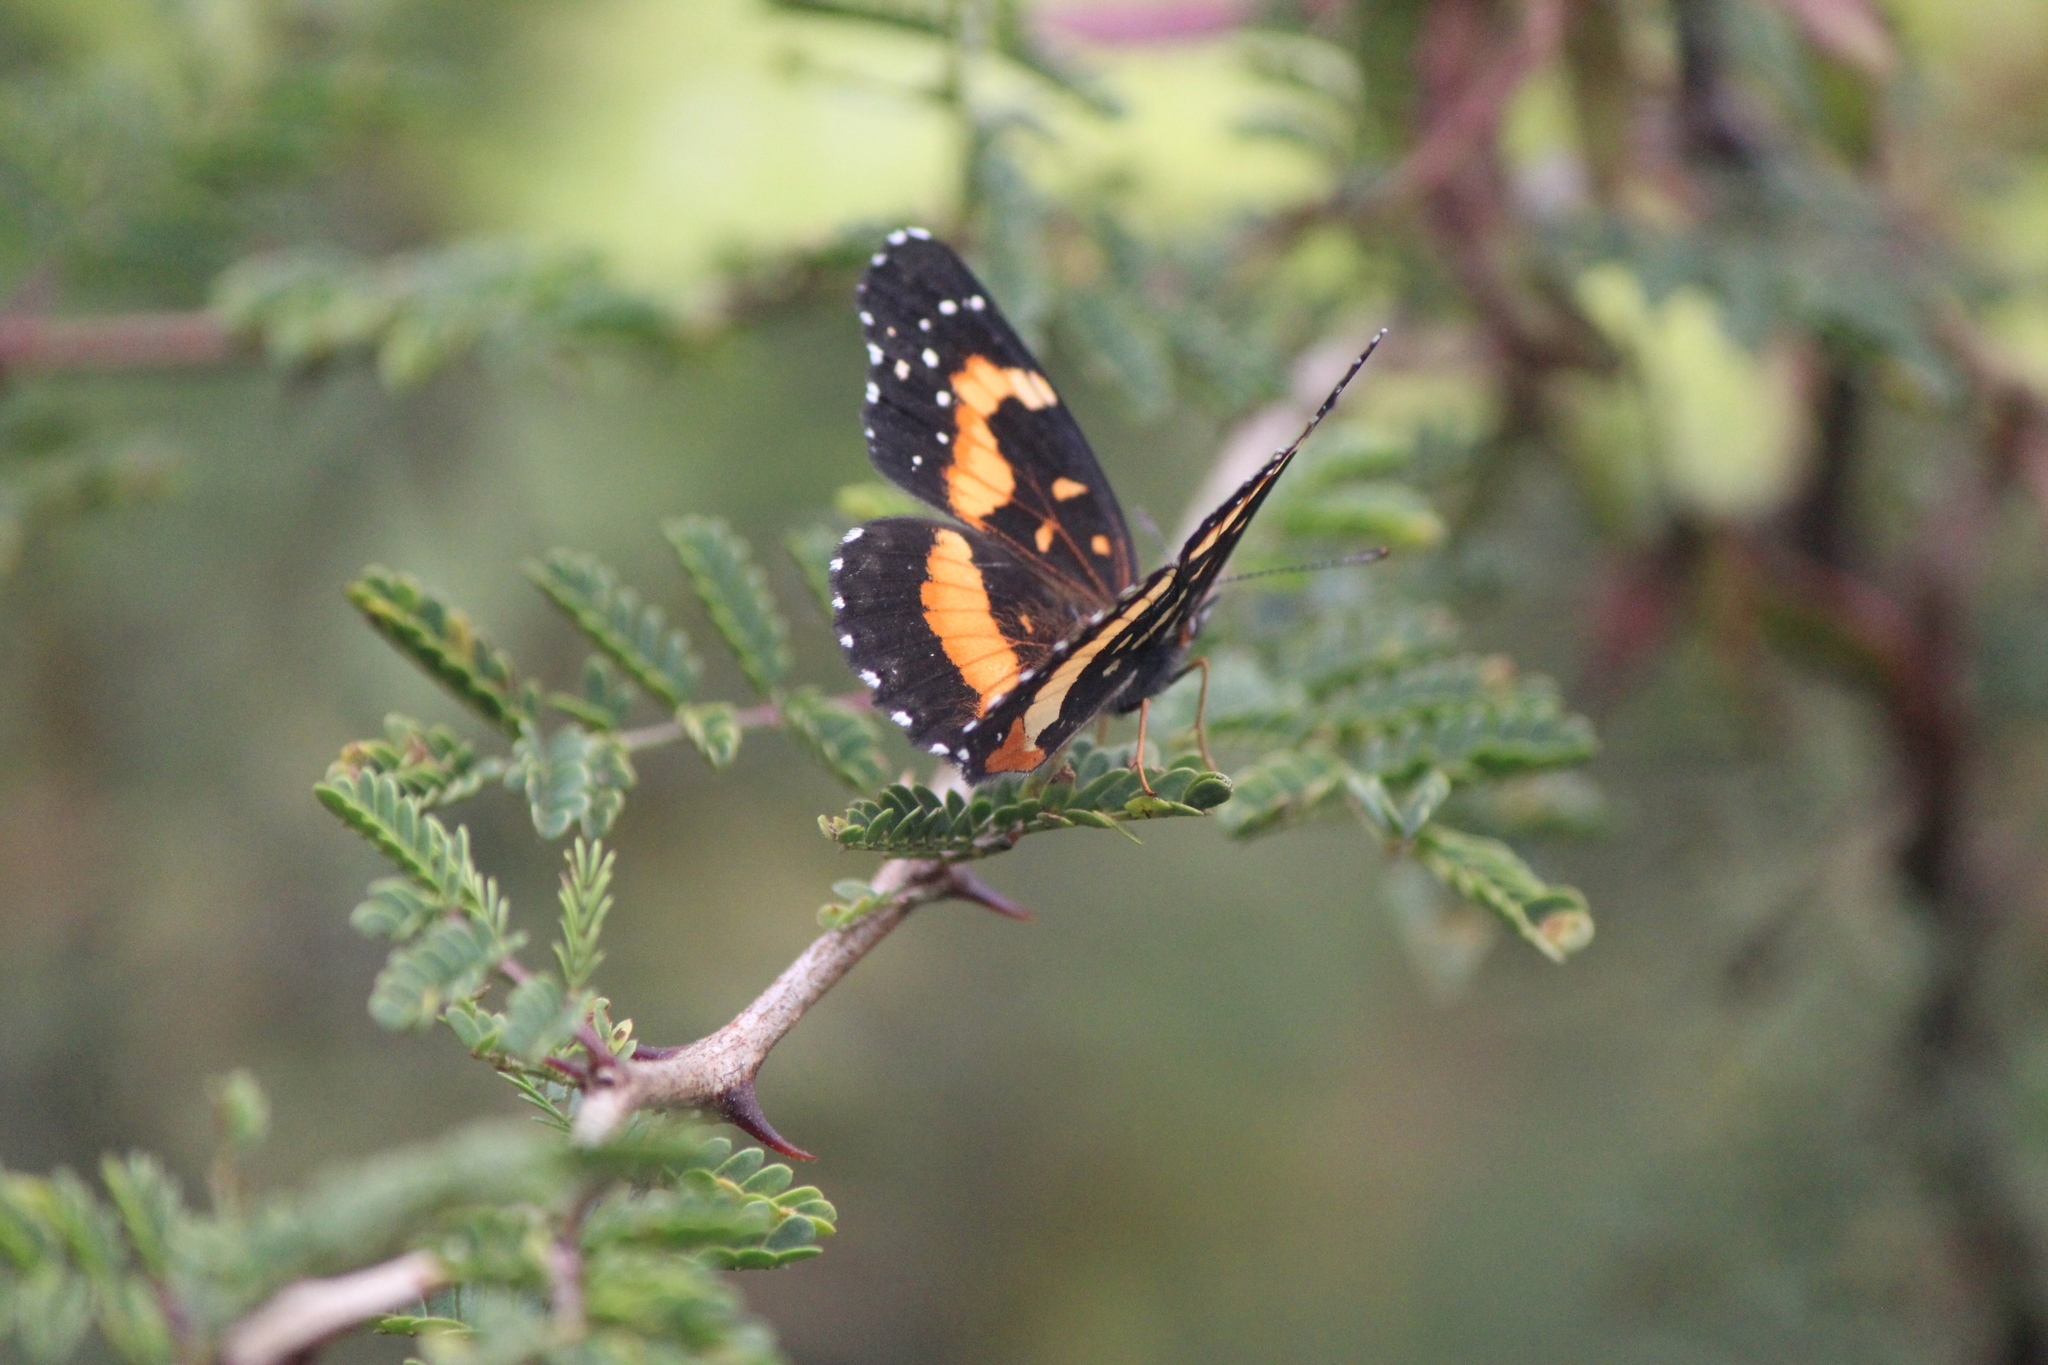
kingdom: Animalia
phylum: Arthropoda
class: Insecta
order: Lepidoptera
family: Nymphalidae
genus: Chlosyne
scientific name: Chlosyne lacinia
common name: Bordered patch
